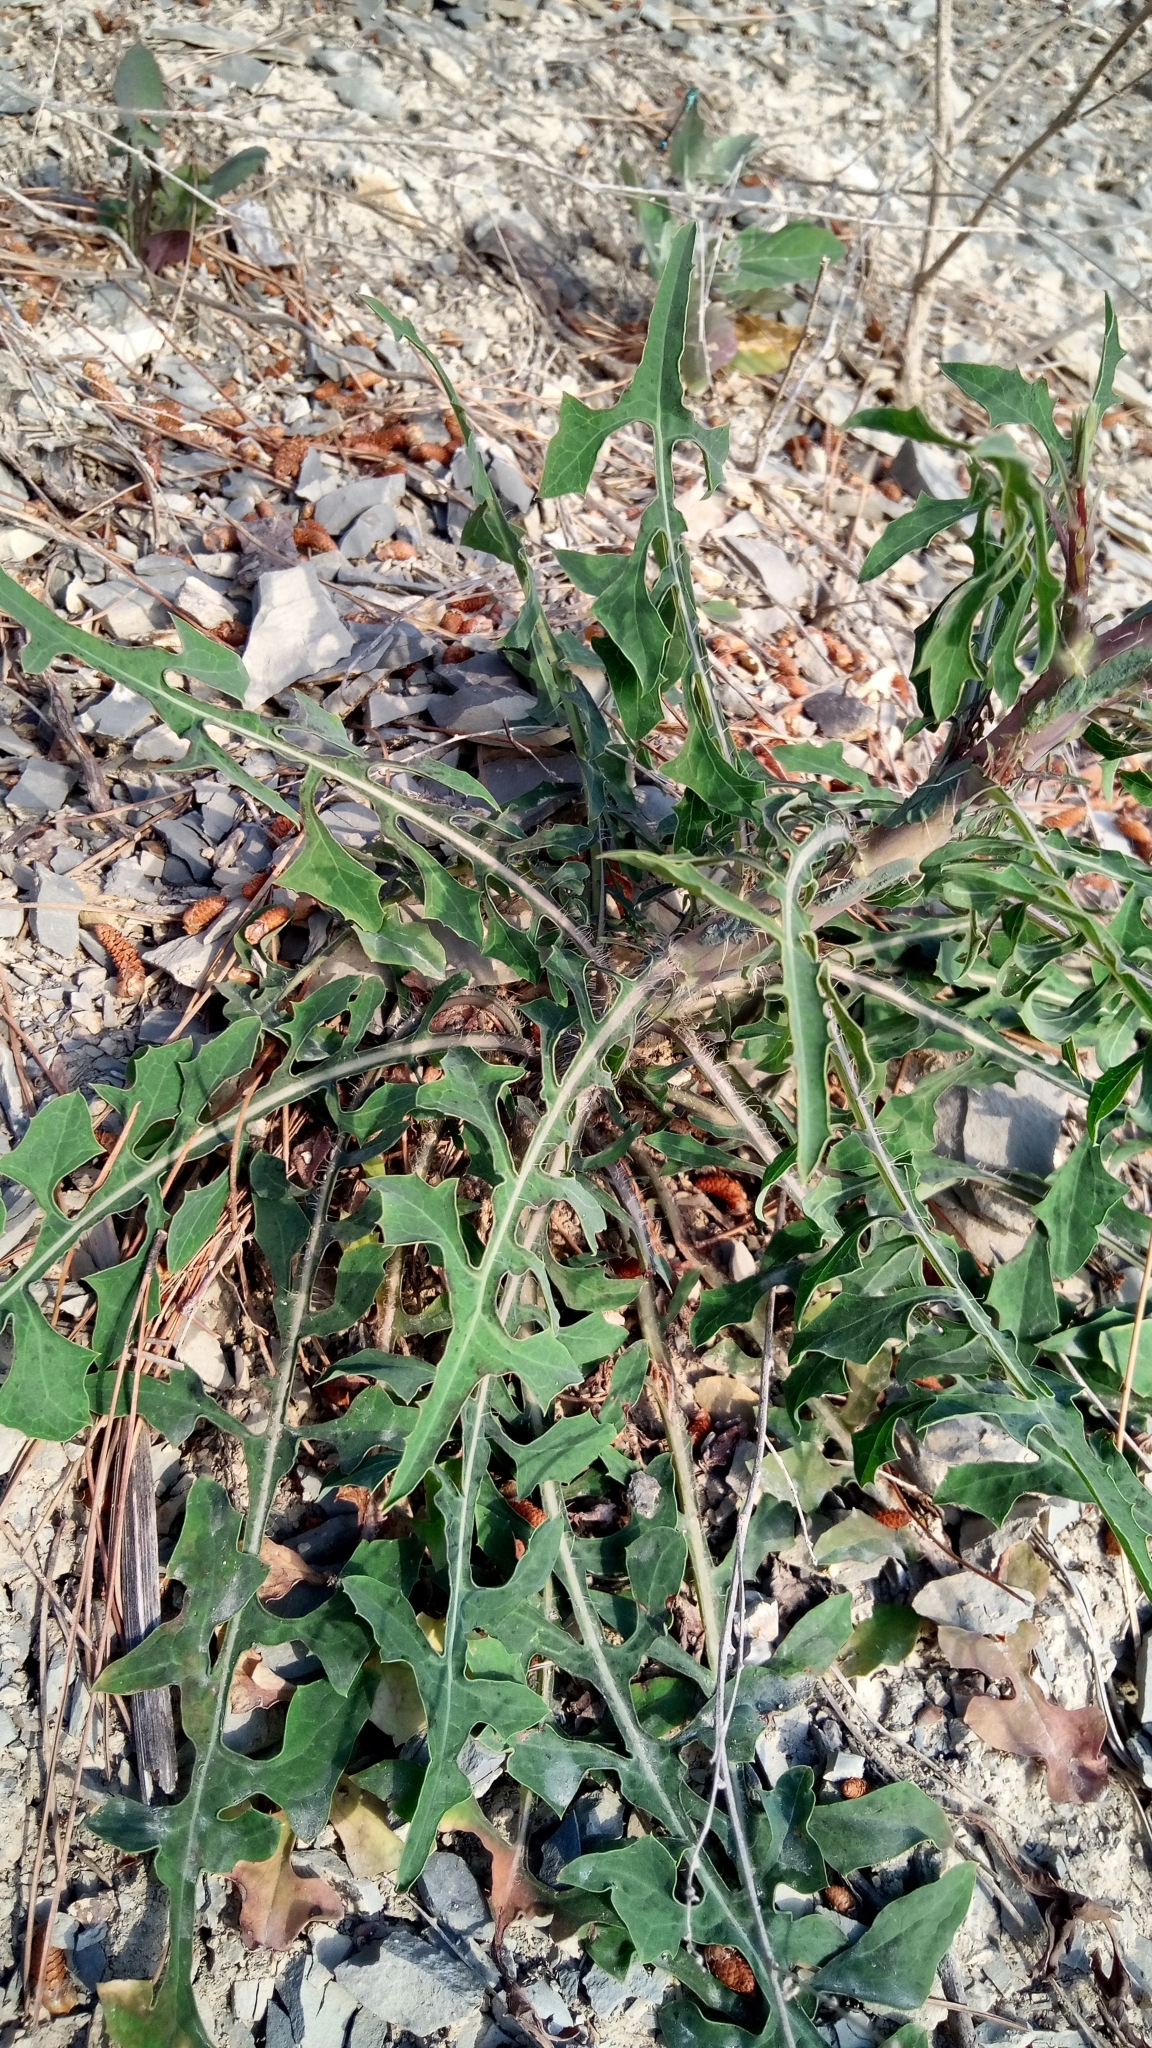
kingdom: Plantae
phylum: Tracheophyta
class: Magnoliopsida
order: Asterales
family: Asteraceae
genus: Lactuca
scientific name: Lactuca viminea
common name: Pliant lettuce
